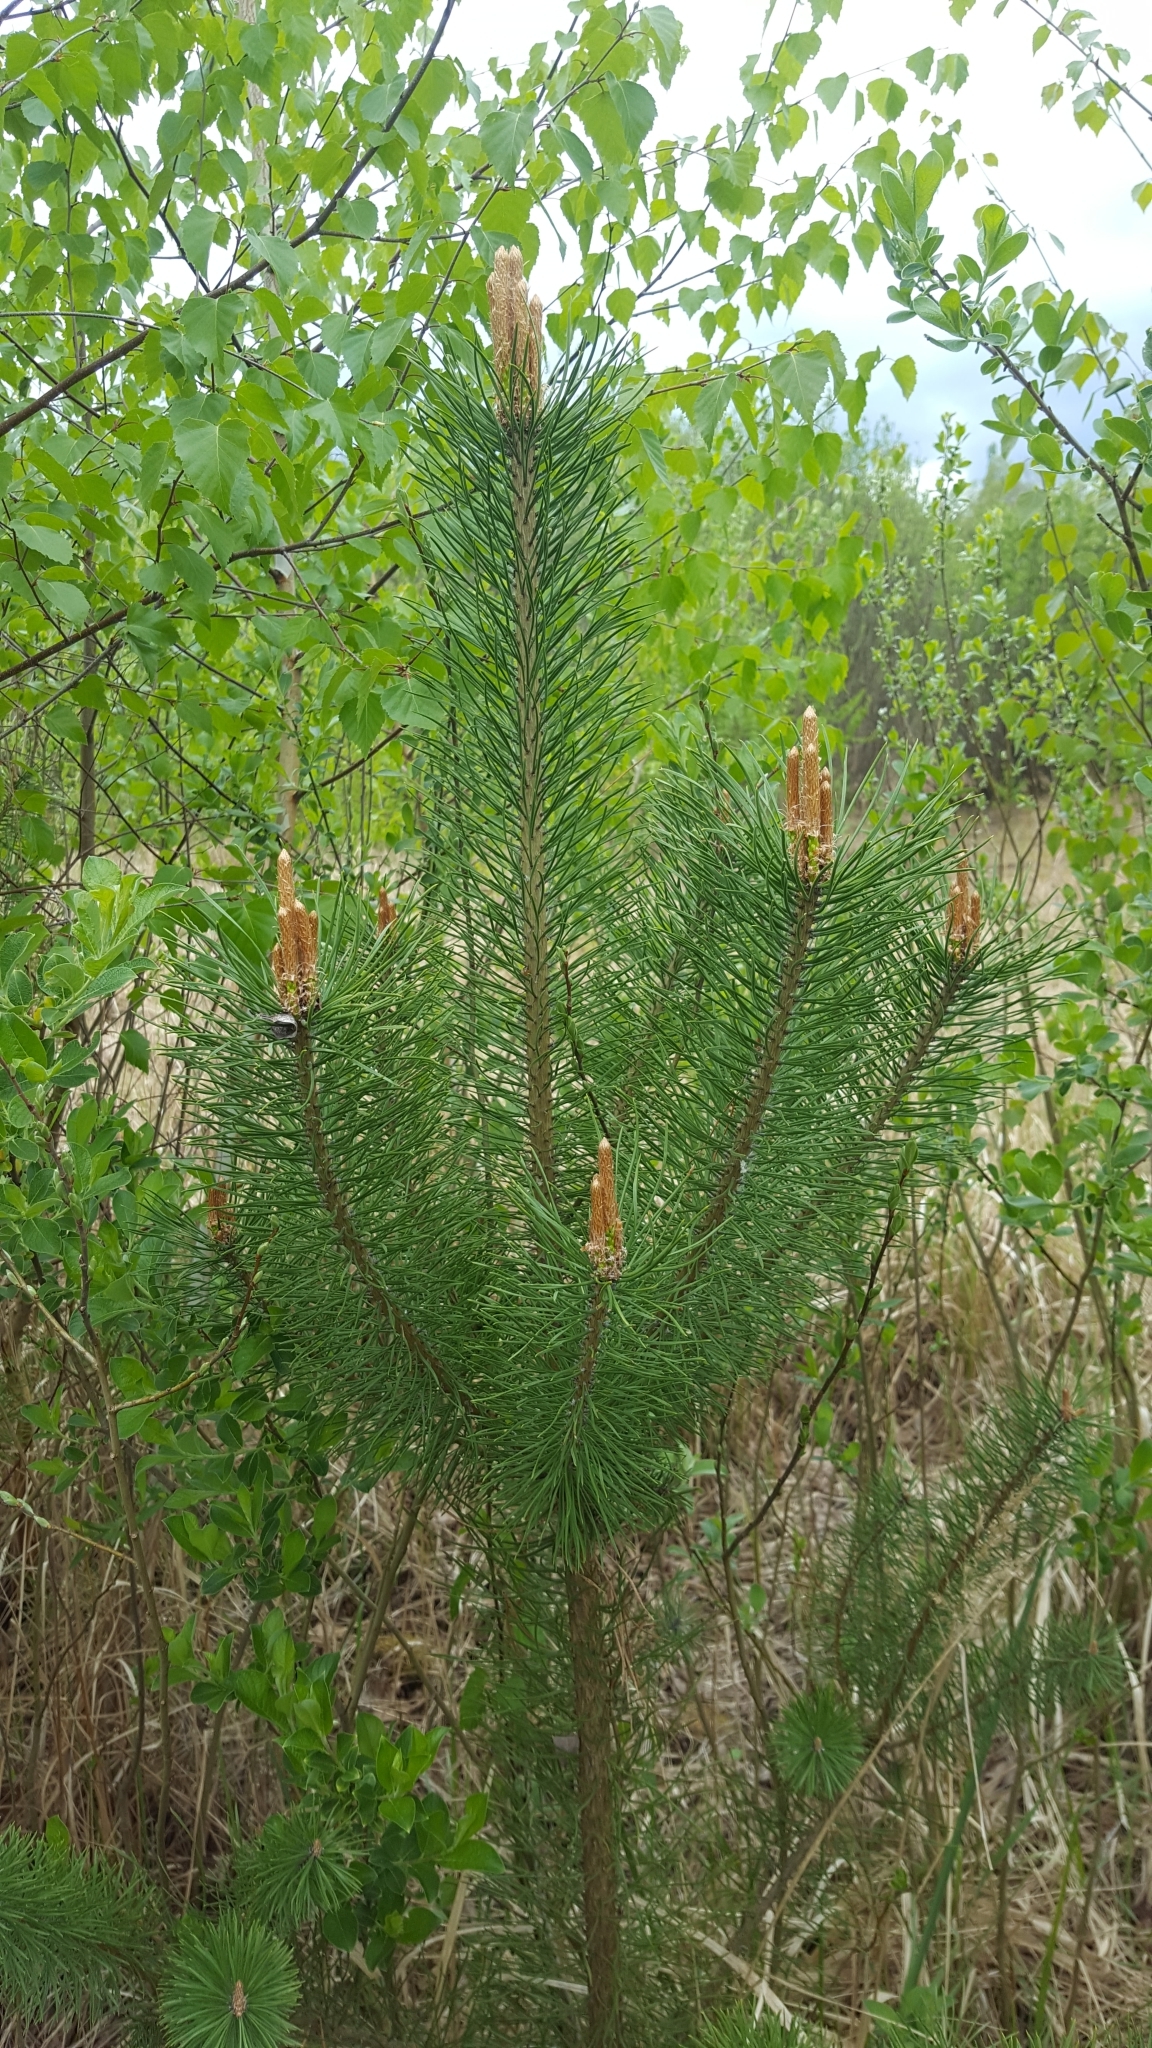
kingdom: Plantae
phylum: Tracheophyta
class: Pinopsida
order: Pinales
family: Pinaceae
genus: Pinus
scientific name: Pinus sylvestris
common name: Scots pine
